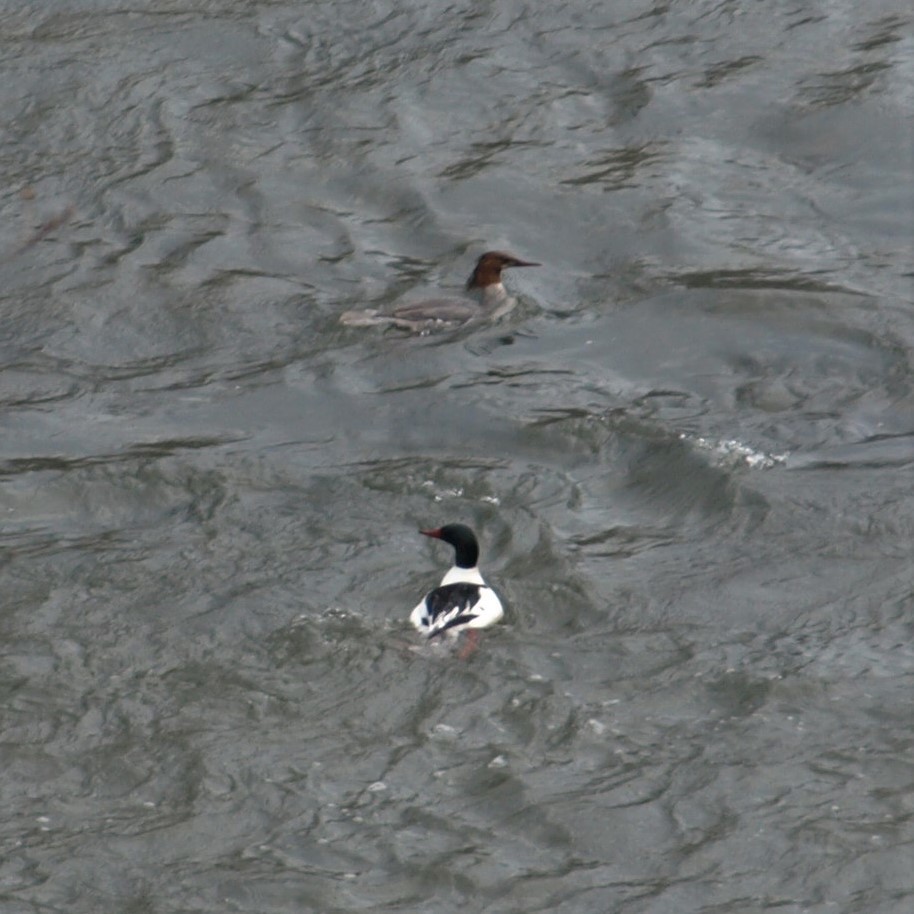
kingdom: Animalia
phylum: Chordata
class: Aves
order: Anseriformes
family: Anatidae
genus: Mergus
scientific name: Mergus merganser
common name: Common merganser
